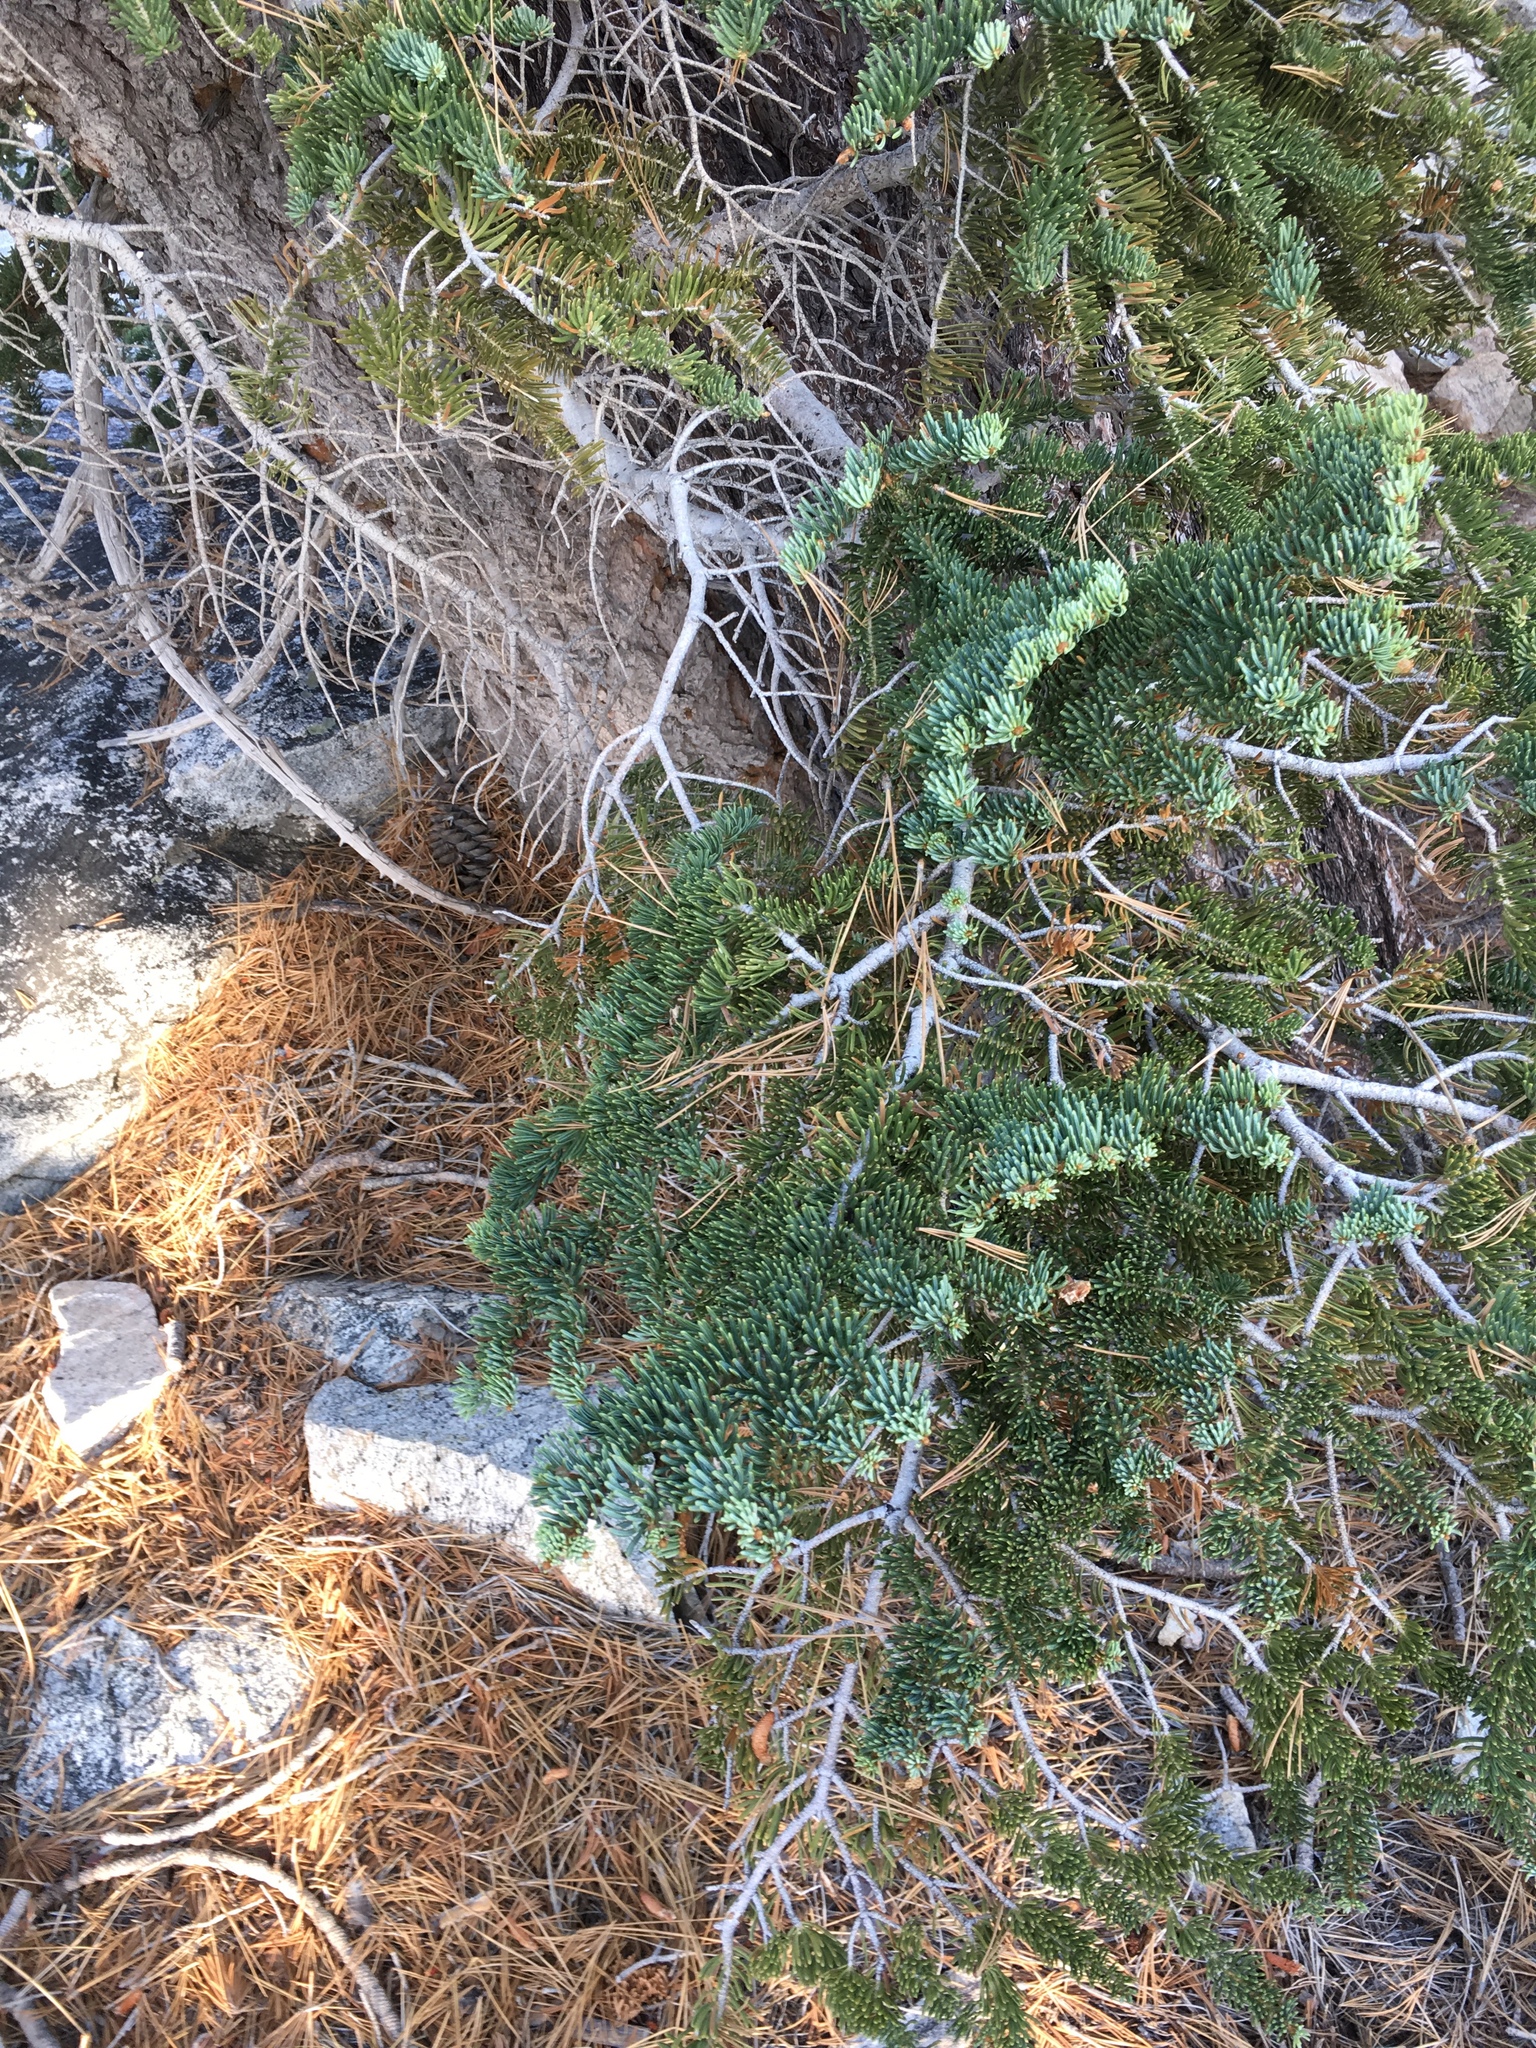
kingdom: Plantae
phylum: Tracheophyta
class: Pinopsida
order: Pinales
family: Pinaceae
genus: Abies
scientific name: Abies concolor
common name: Colorado fir
